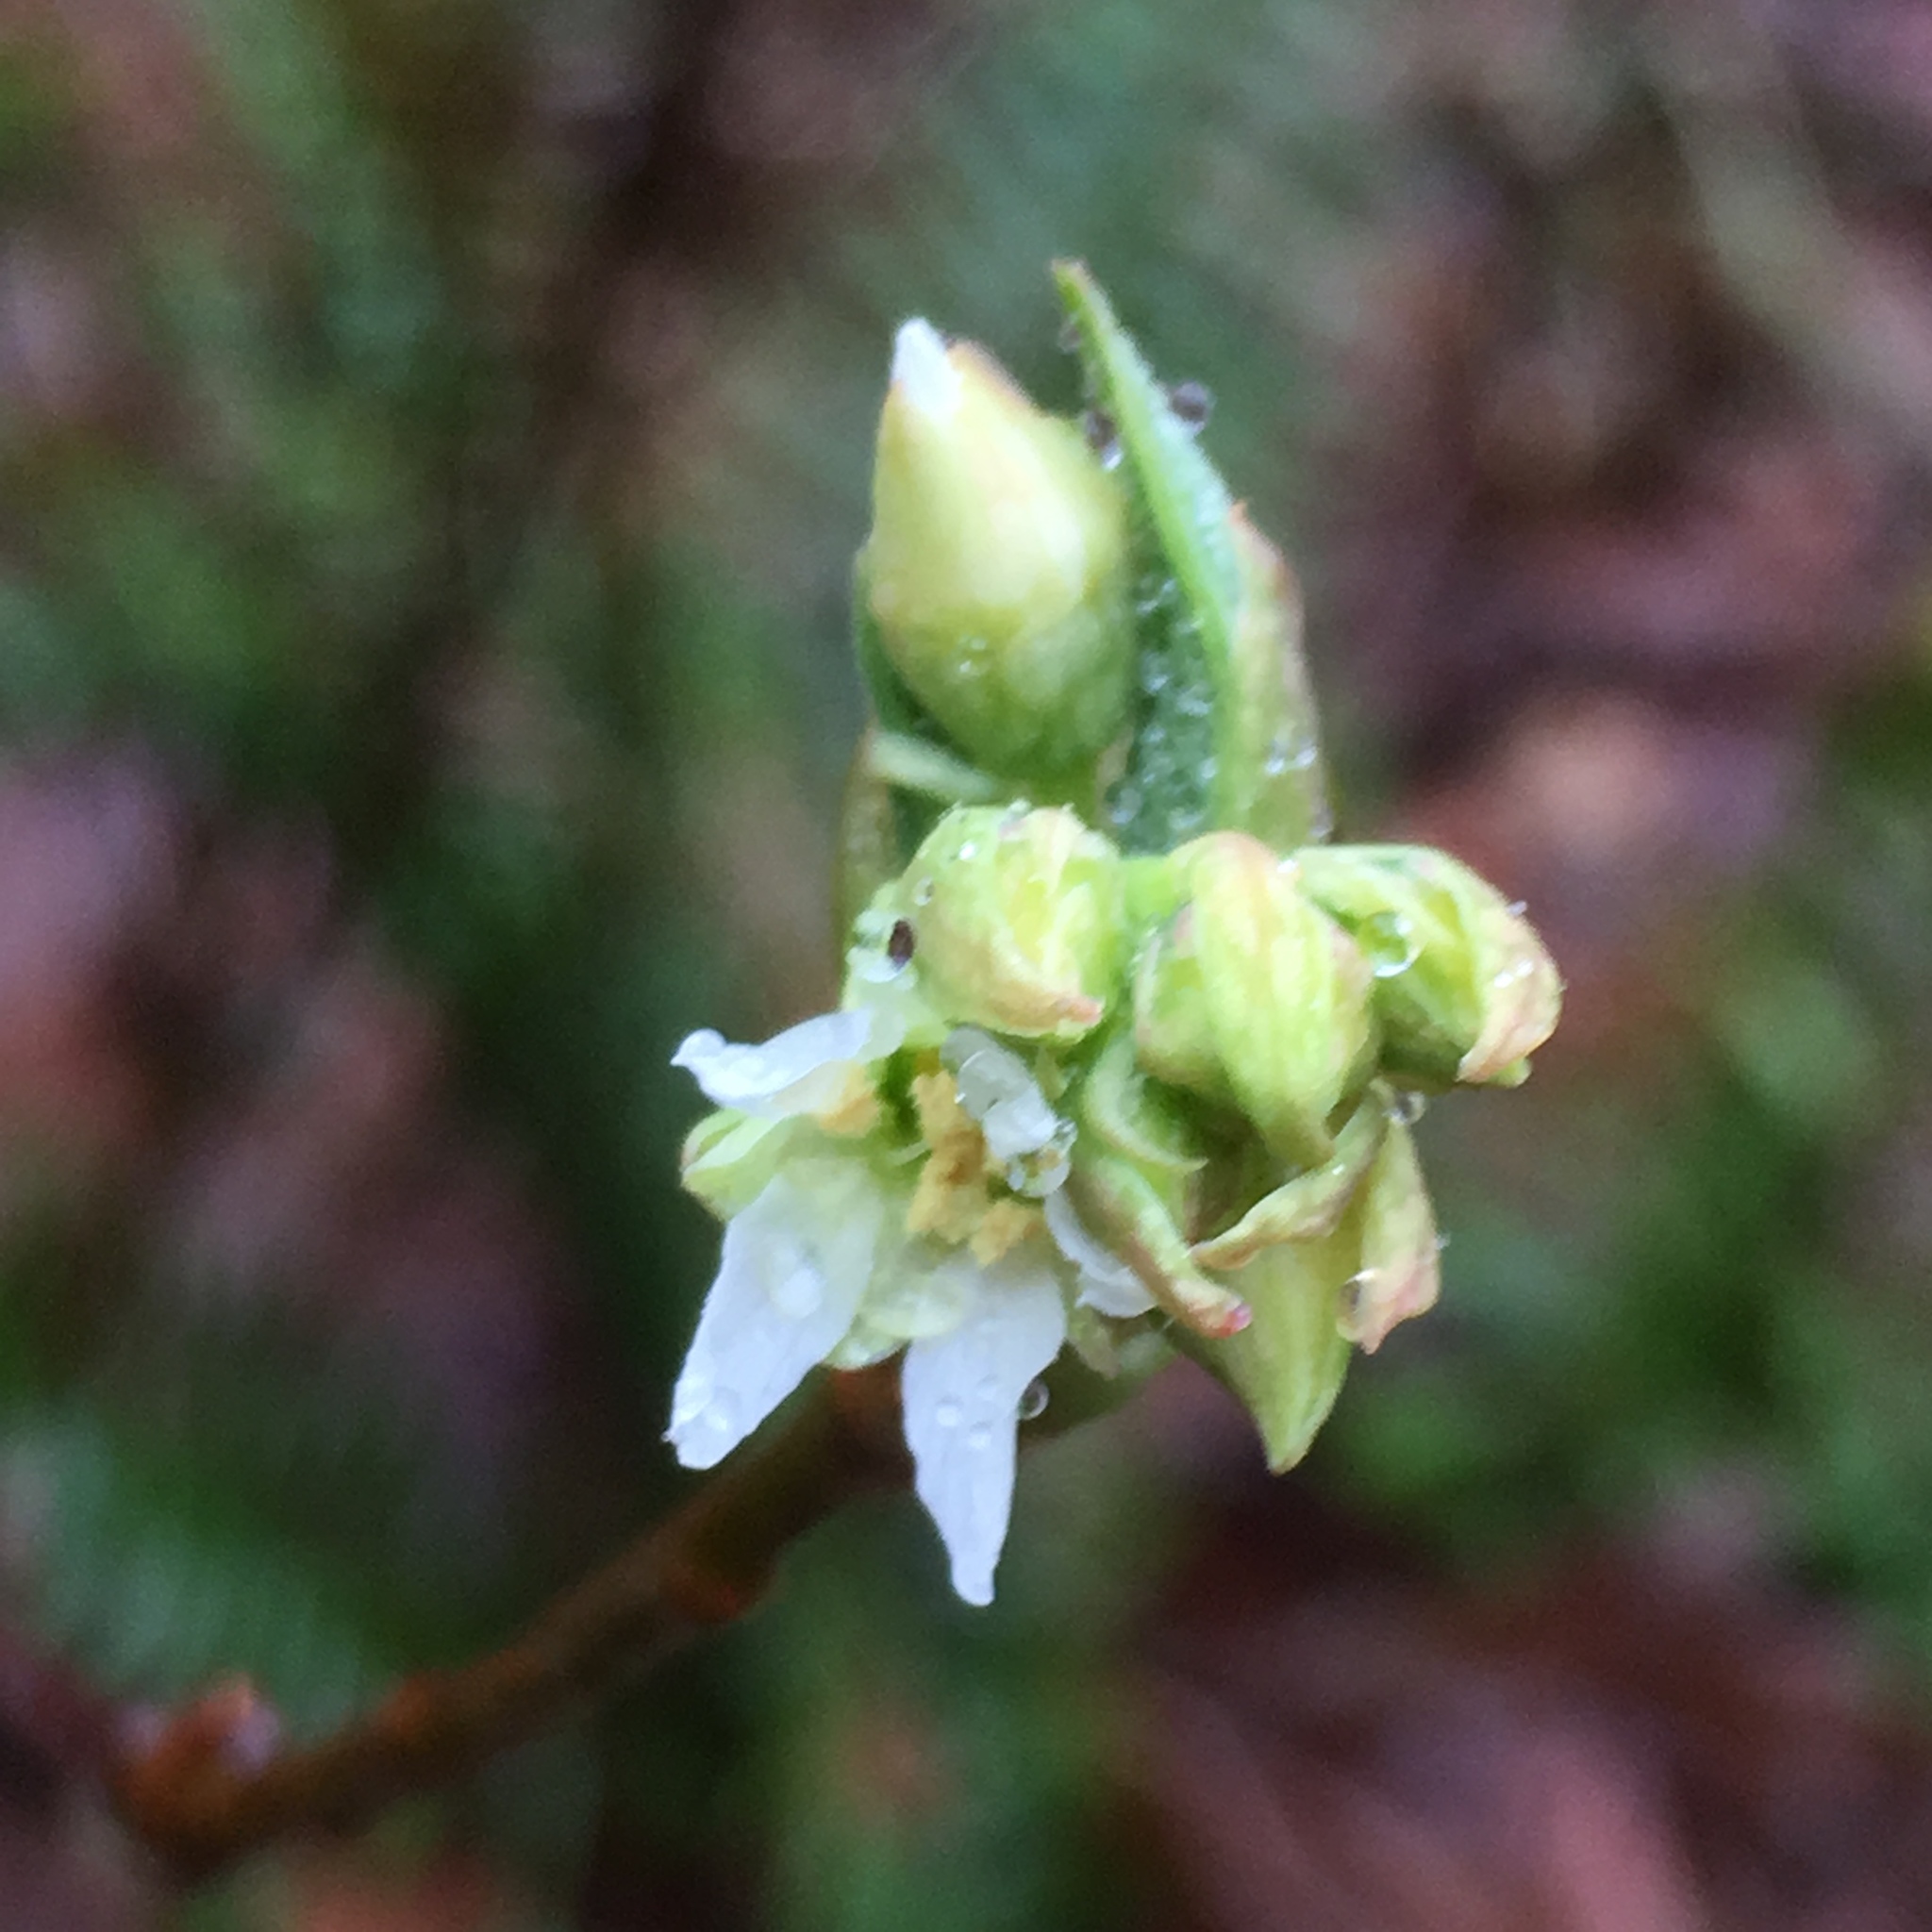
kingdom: Plantae
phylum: Tracheophyta
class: Magnoliopsida
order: Rosales
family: Rosaceae
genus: Oemleria
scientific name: Oemleria cerasiformis
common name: Osoberry
